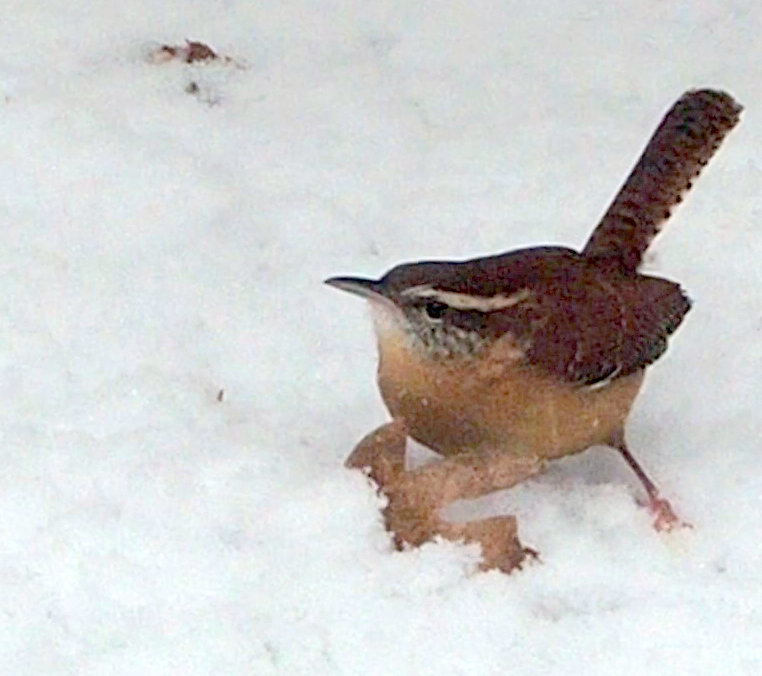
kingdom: Animalia
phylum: Chordata
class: Aves
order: Passeriformes
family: Troglodytidae
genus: Thryothorus
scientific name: Thryothorus ludovicianus
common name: Carolina wren
